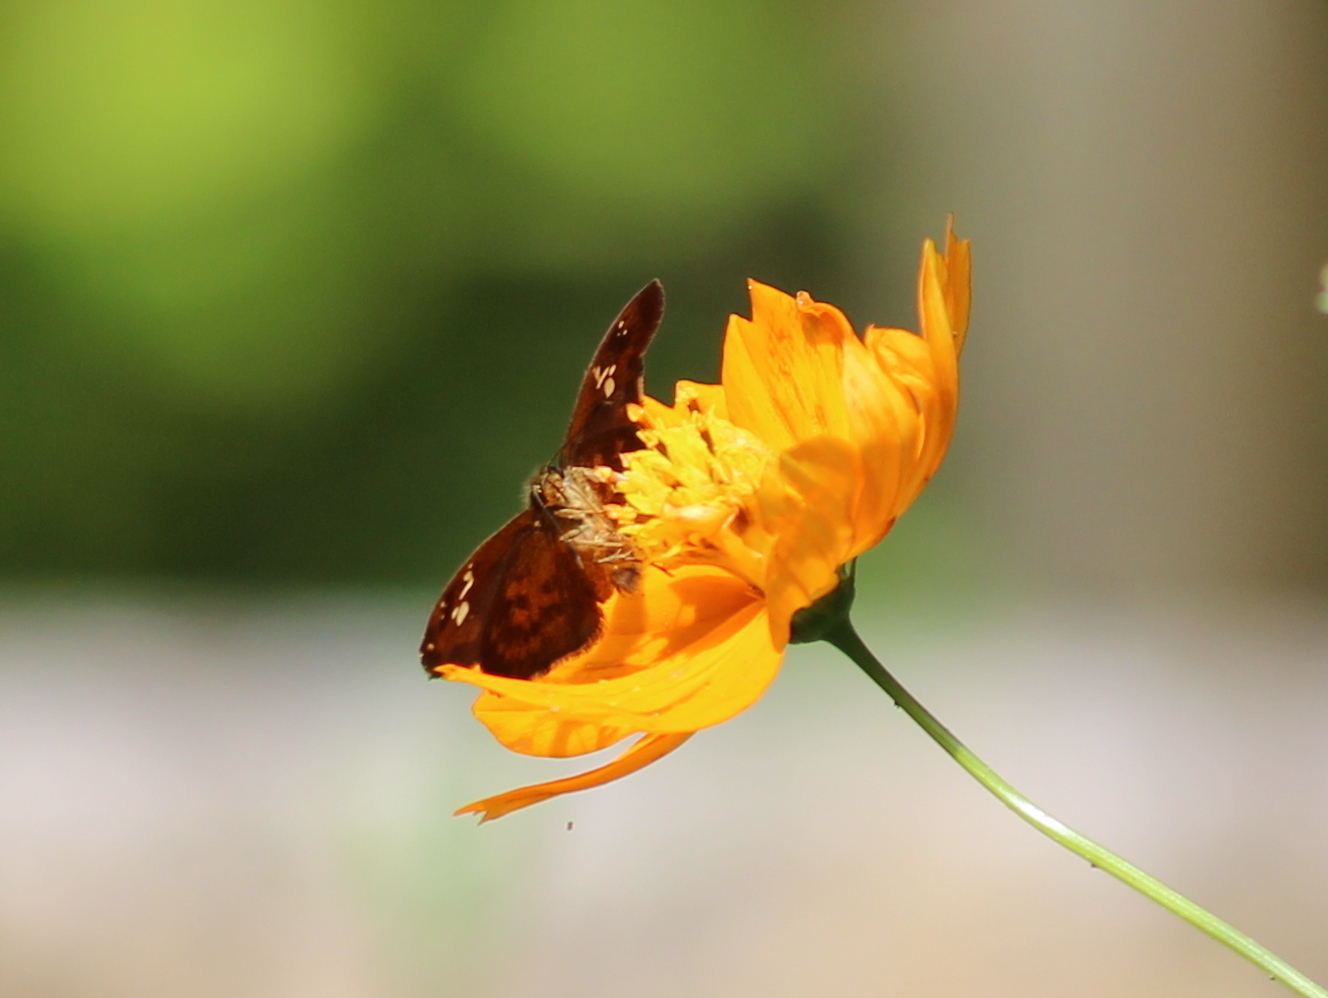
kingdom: Animalia
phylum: Arthropoda
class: Insecta
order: Lepidoptera
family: Hesperiidae
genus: Caprona
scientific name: Caprona ransonnettii
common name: Golden angle
